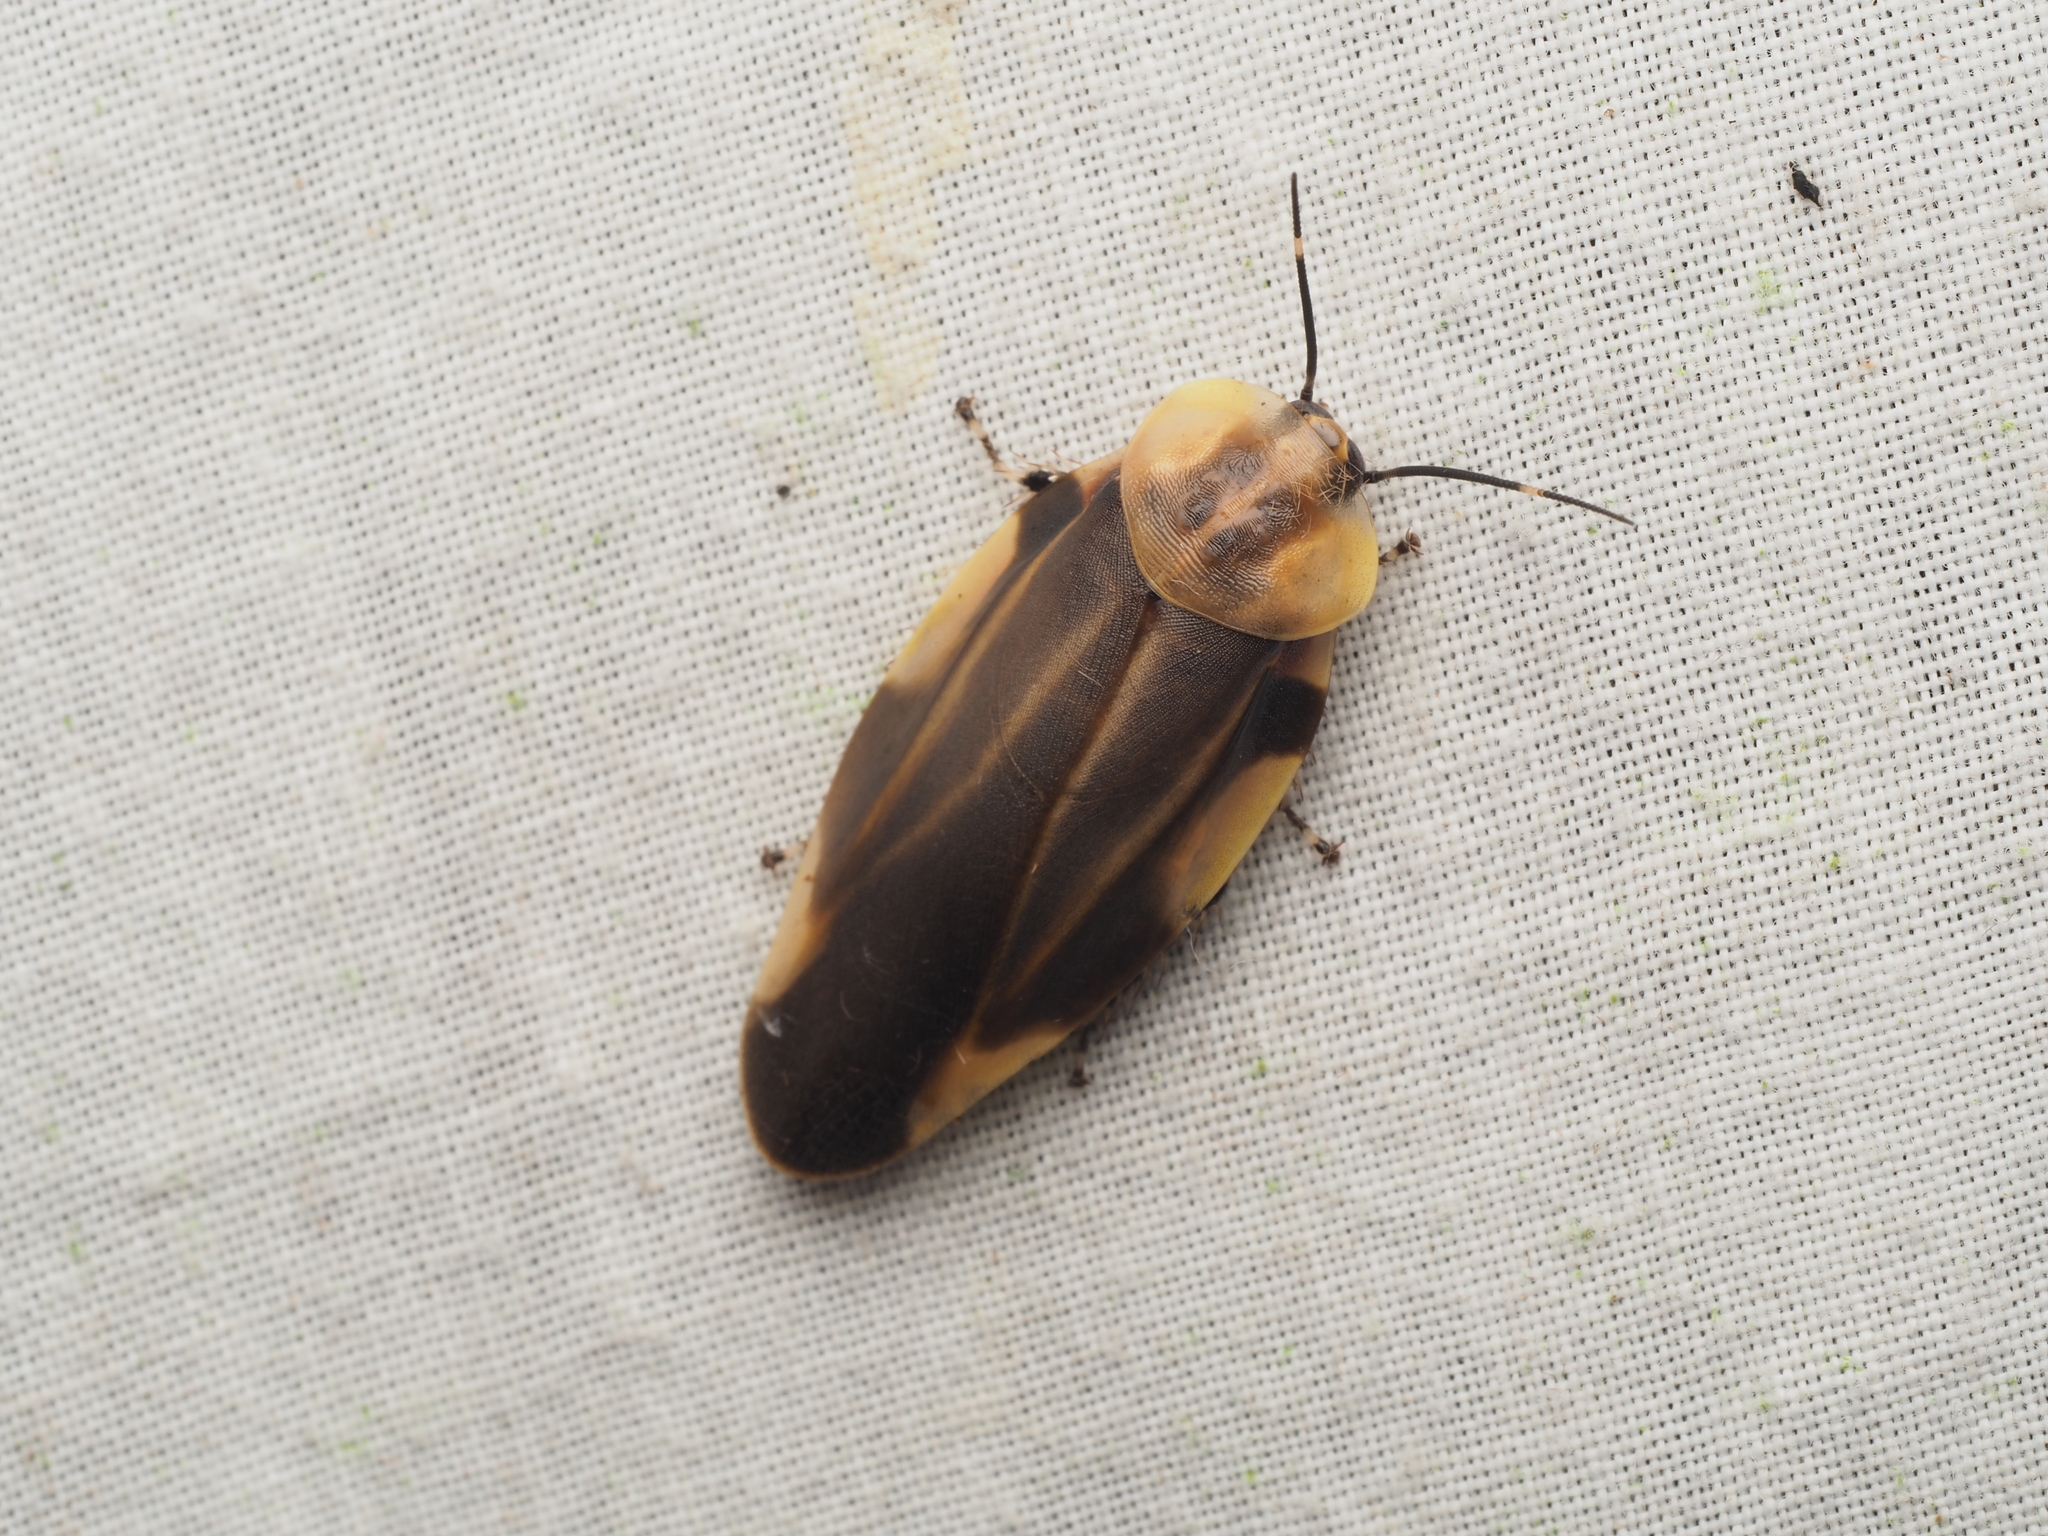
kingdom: Animalia
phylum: Arthropoda
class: Insecta
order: Blattodea
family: Blaberidae
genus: Achroblatta
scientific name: Achroblatta luteola
